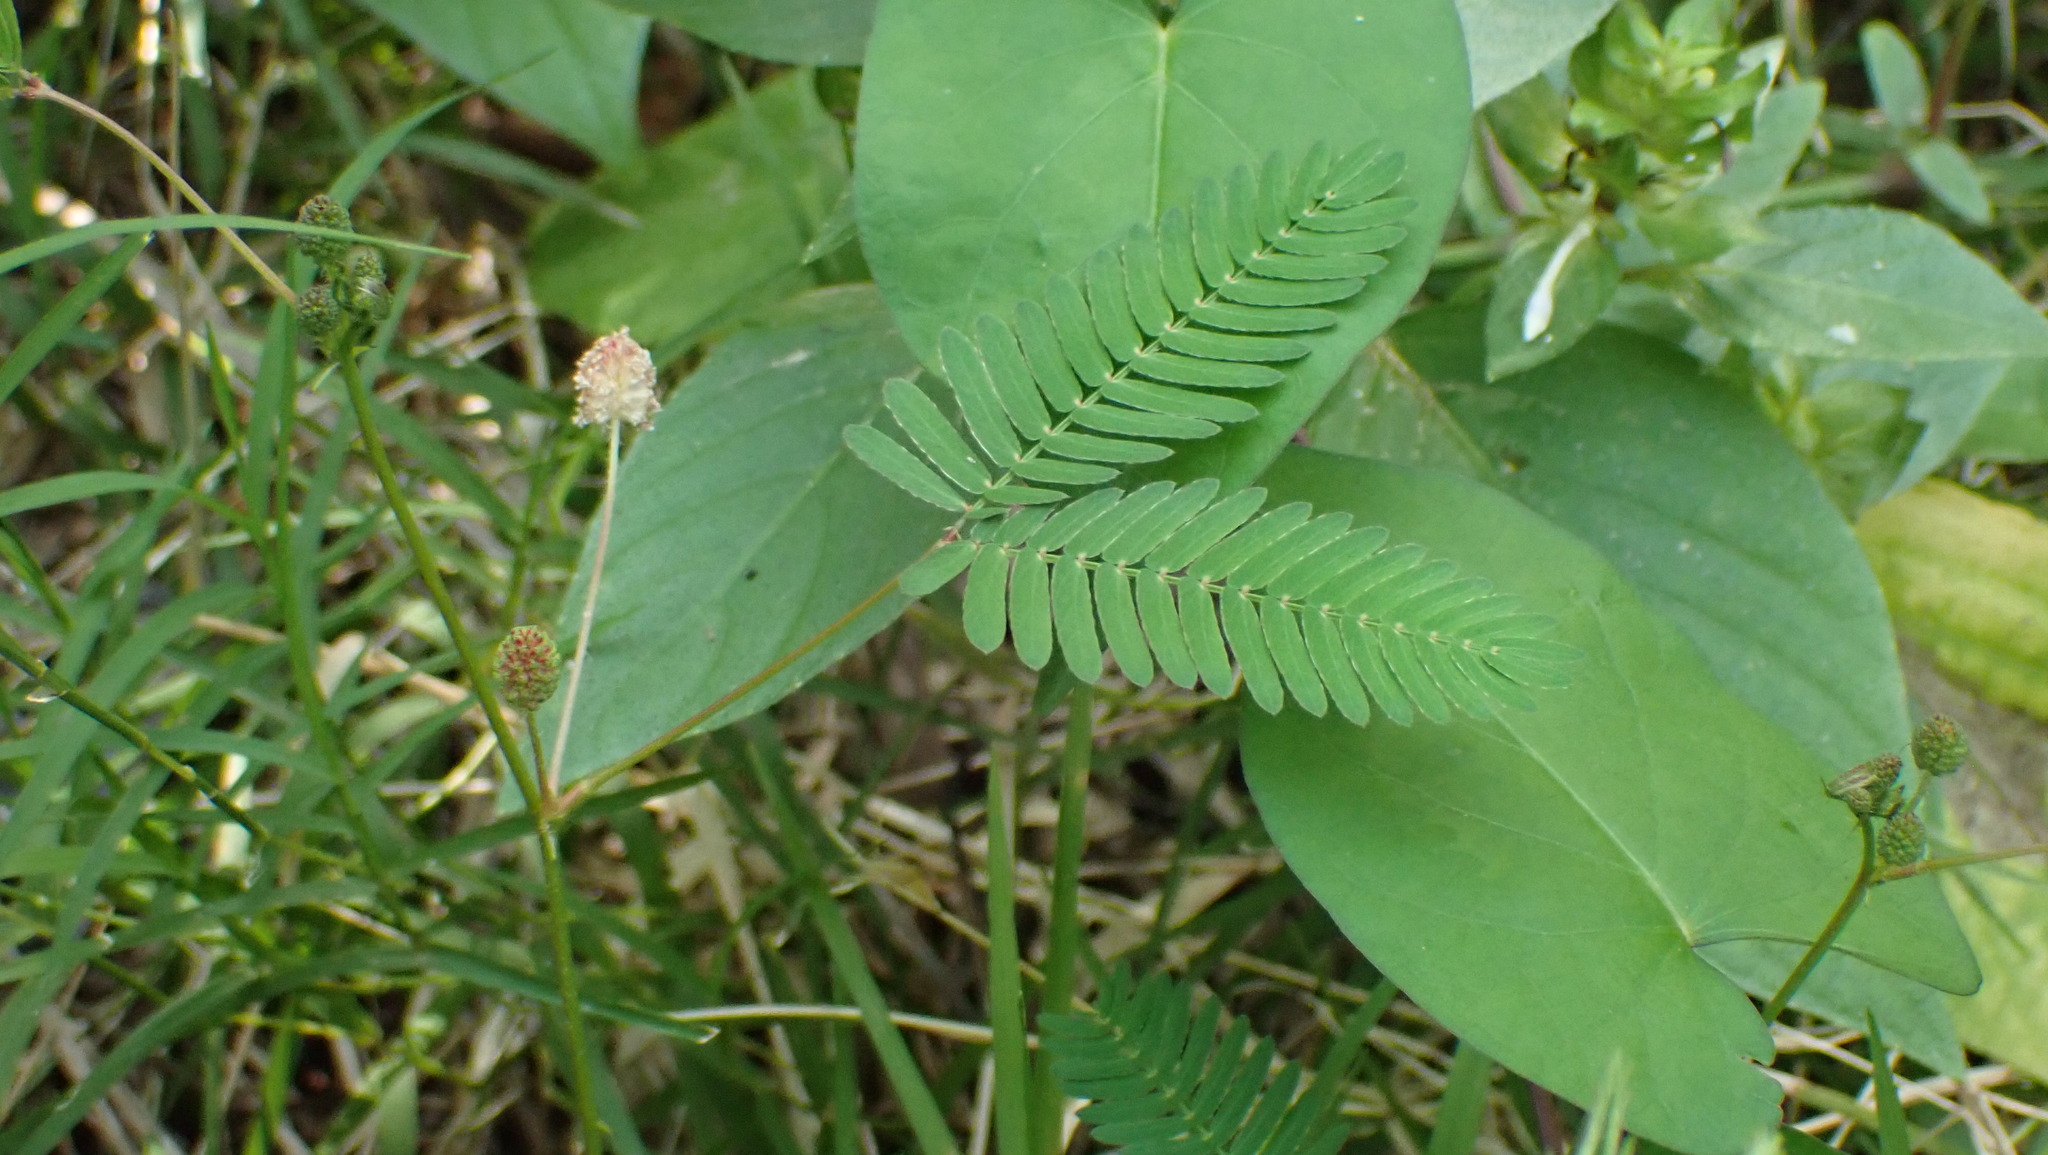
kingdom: Plantae
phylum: Tracheophyta
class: Magnoliopsida
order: Fabales
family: Fabaceae
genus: Mimosa
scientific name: Mimosa pudica
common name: Sensitive plant
